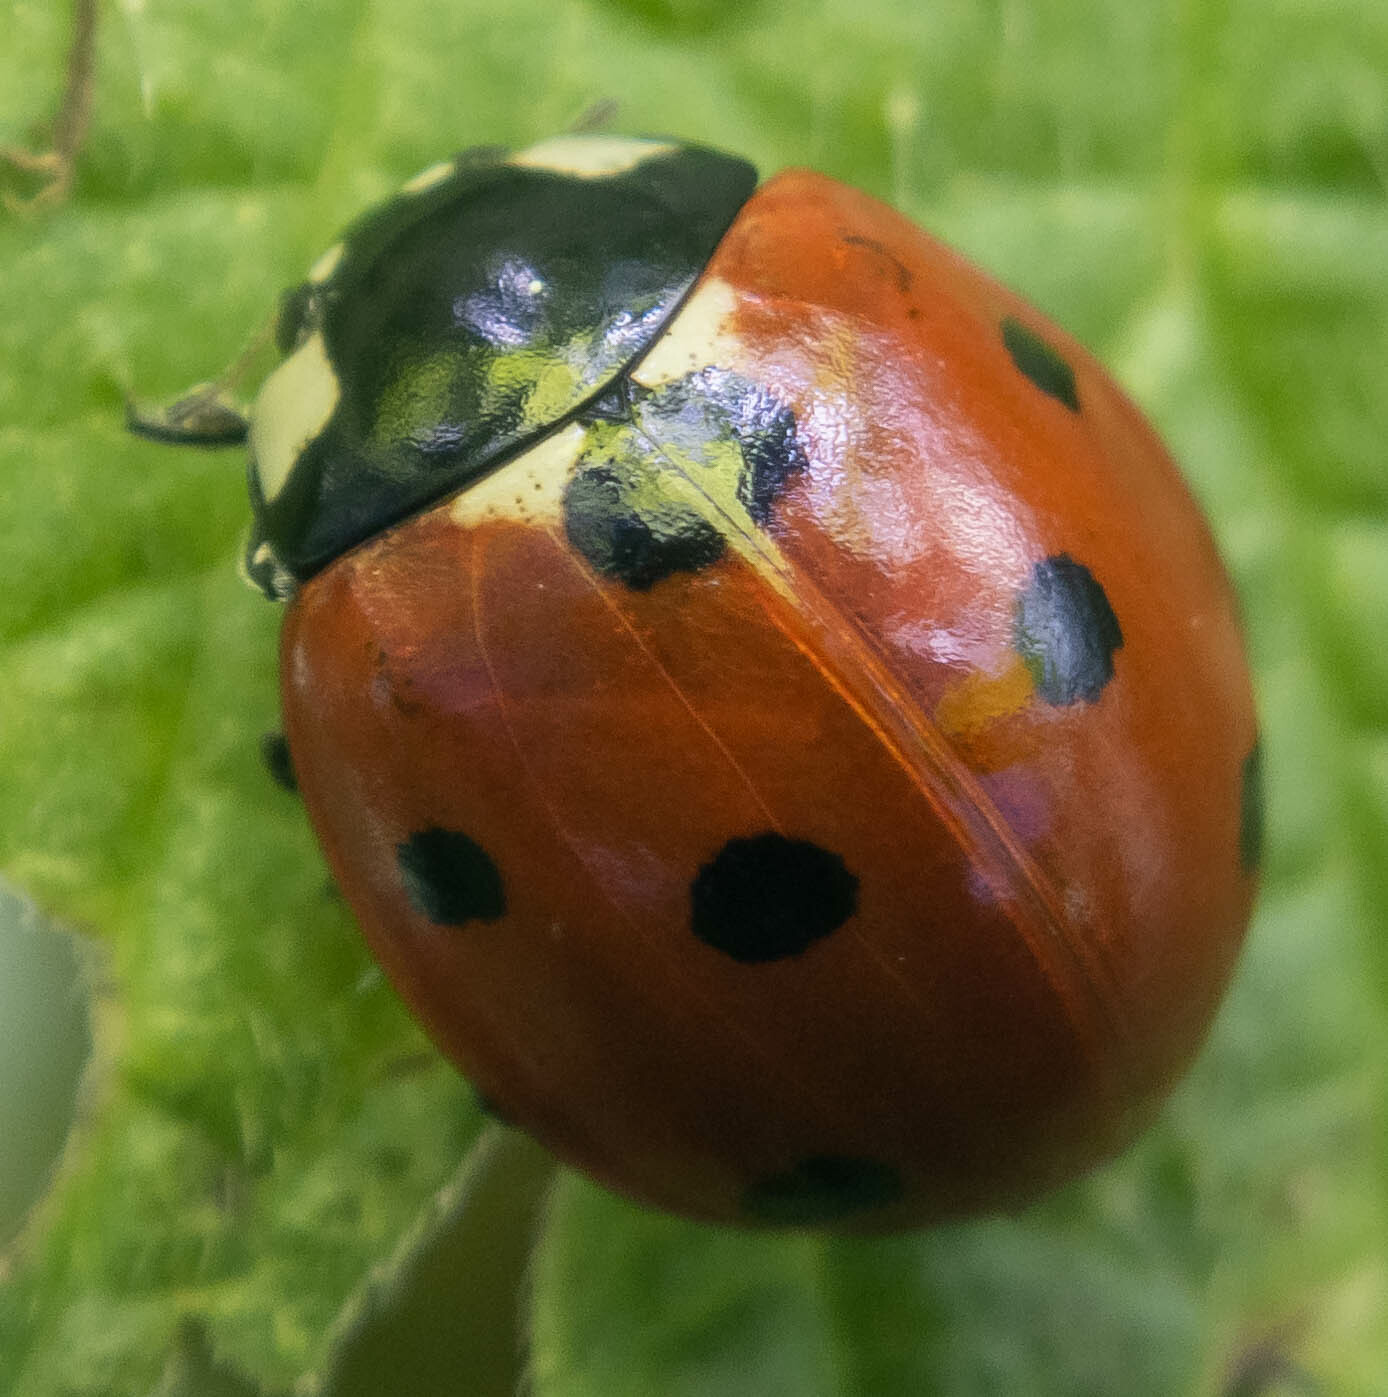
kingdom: Animalia
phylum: Arthropoda
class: Insecta
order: Coleoptera
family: Coccinellidae
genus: Coccinella
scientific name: Coccinella septempunctata
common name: Sevenspotted lady beetle
